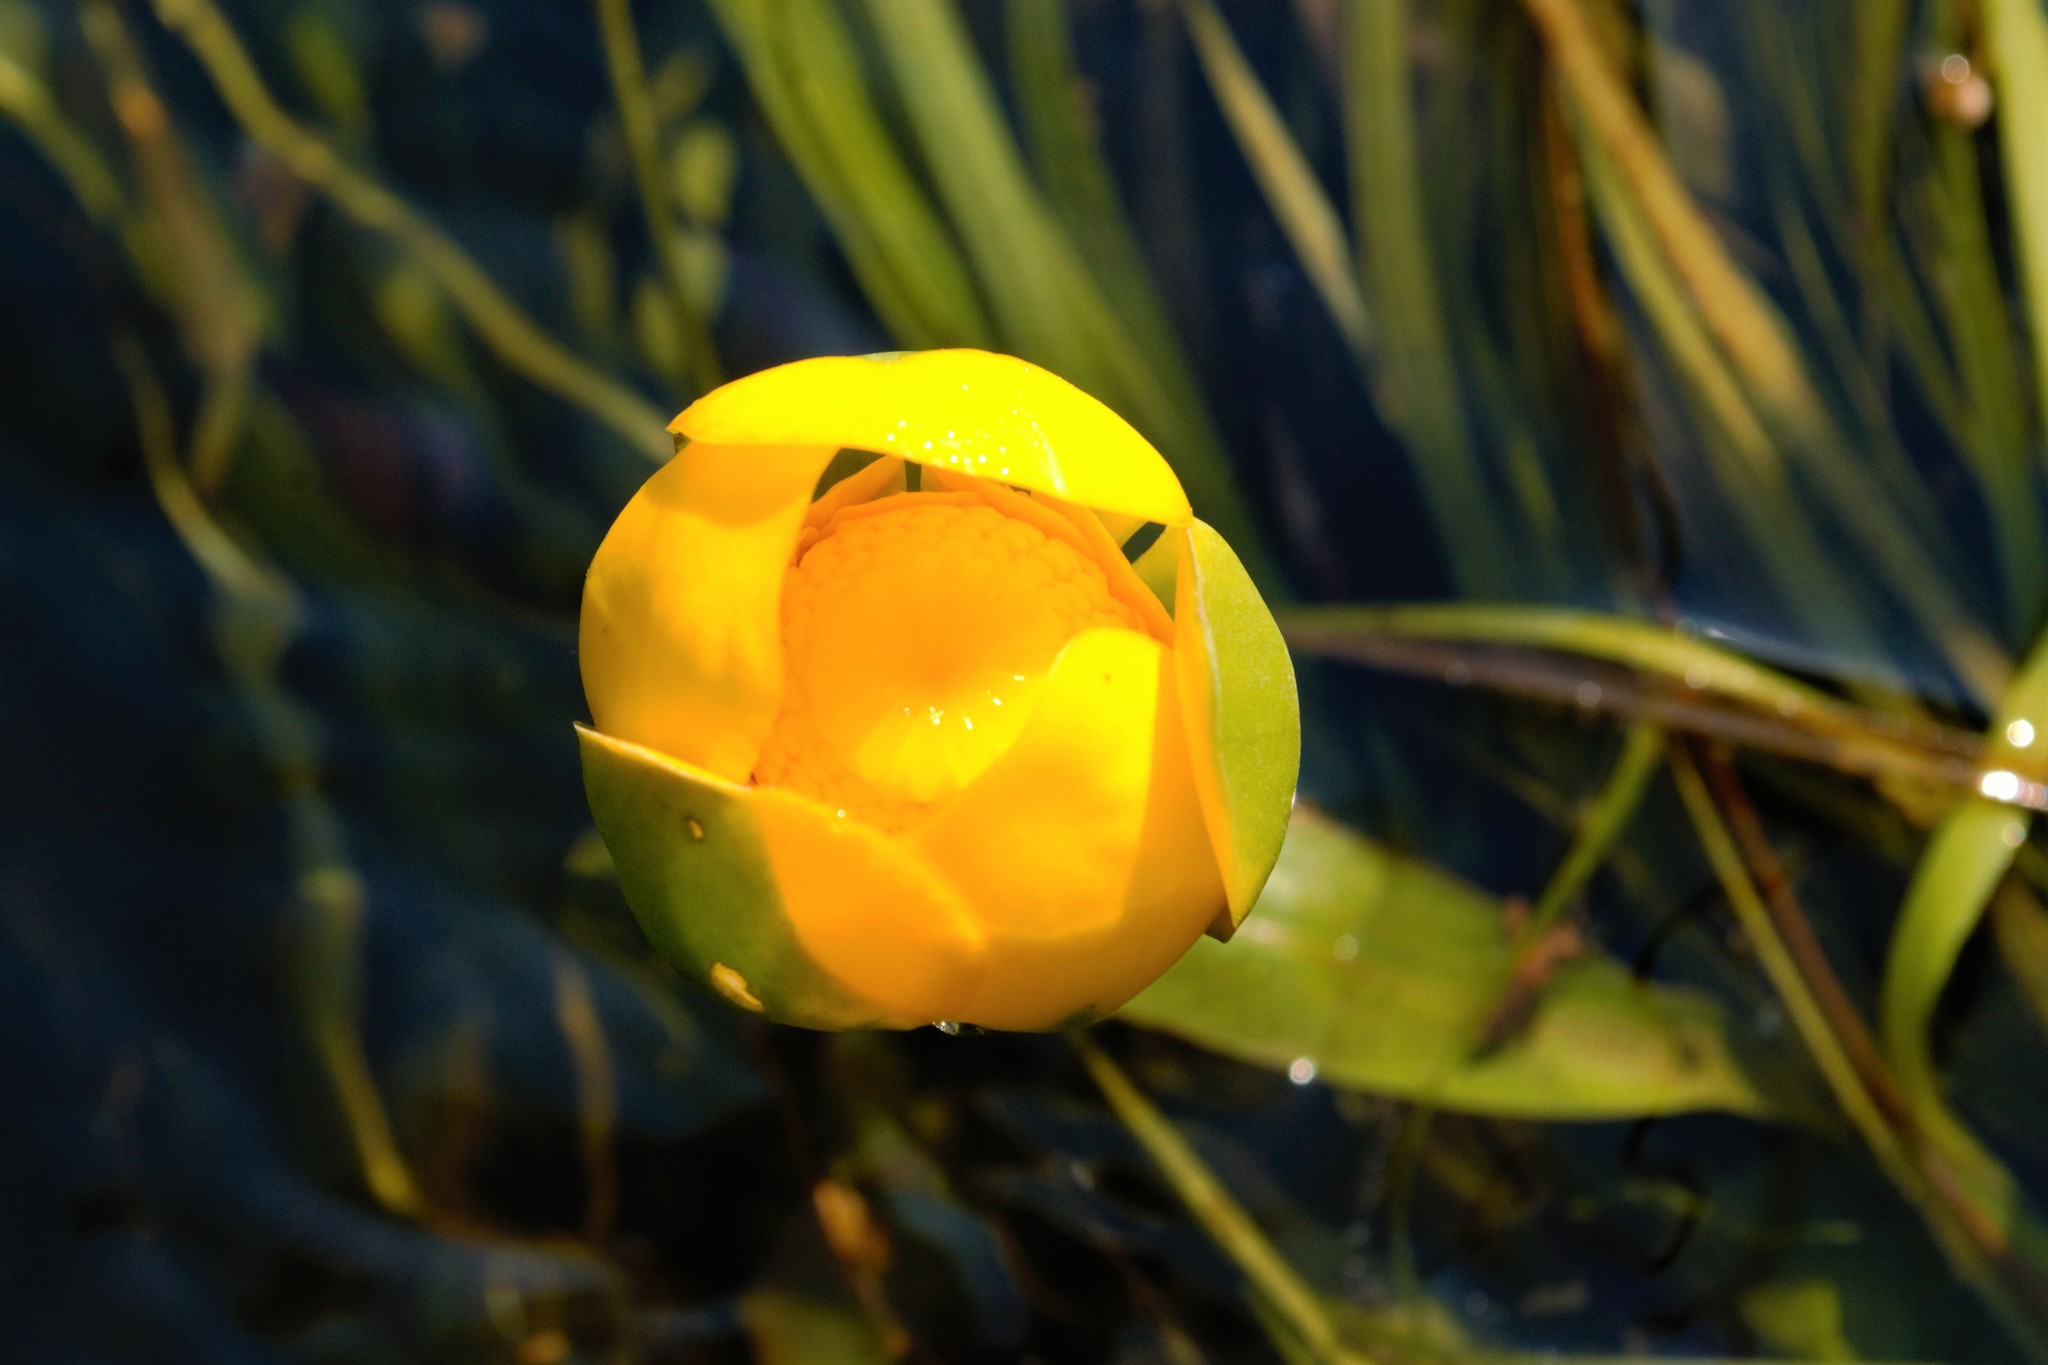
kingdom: Plantae
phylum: Tracheophyta
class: Magnoliopsida
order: Nymphaeales
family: Nymphaeaceae
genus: Nuphar
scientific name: Nuphar lutea
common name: Yellow water-lily
